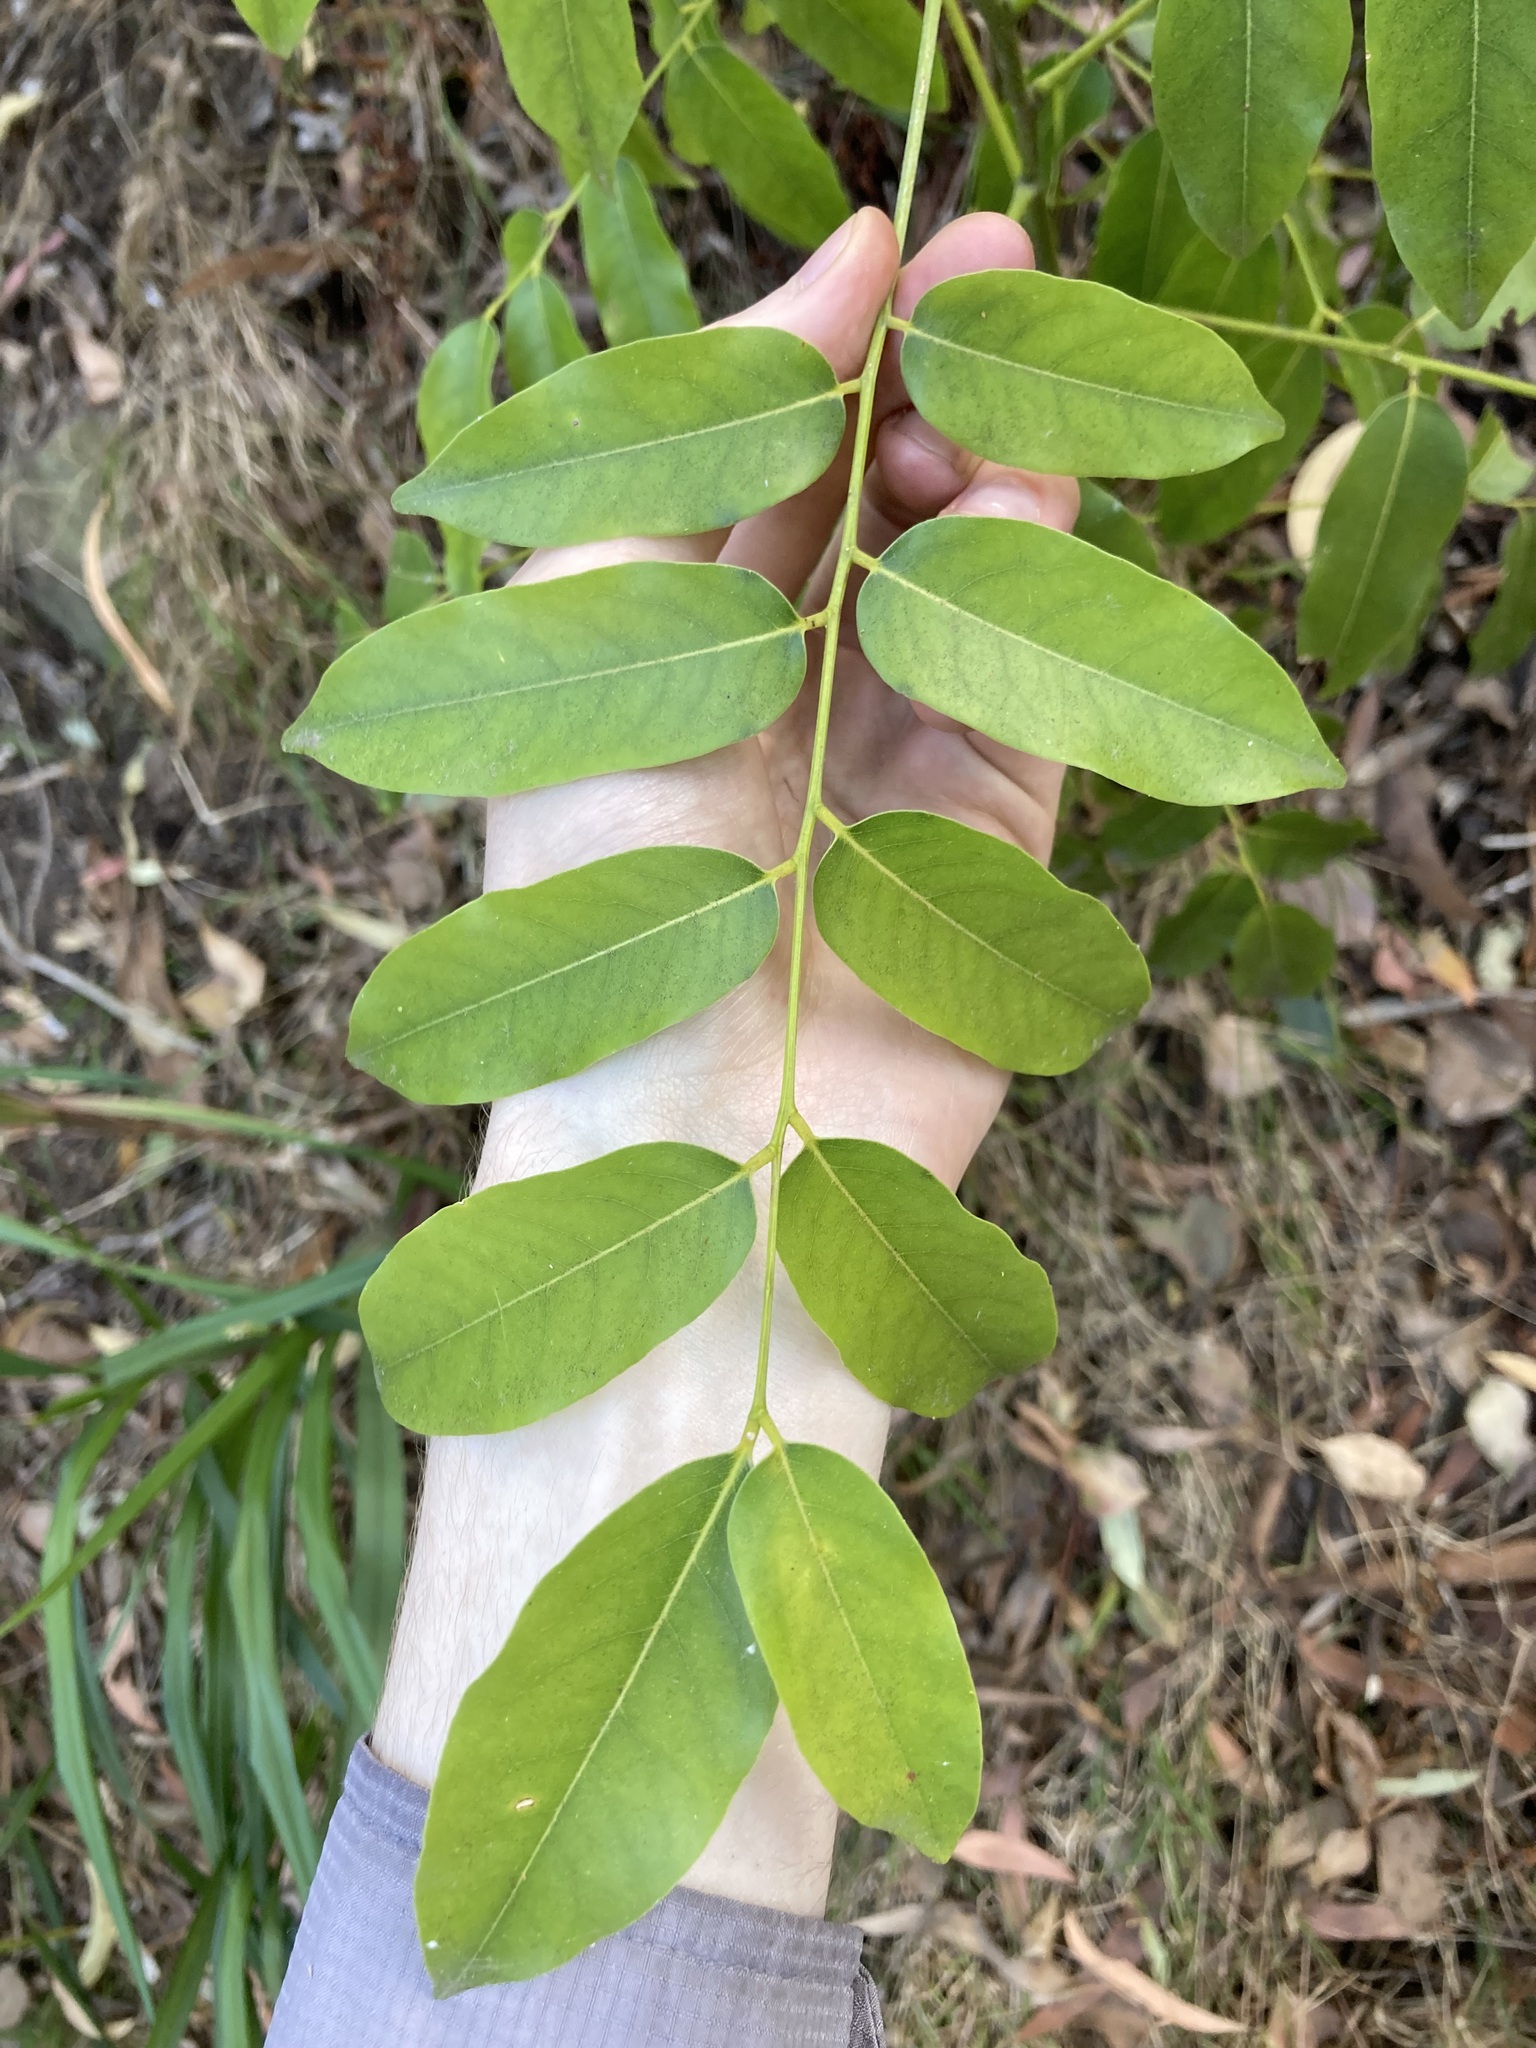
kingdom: Plantae
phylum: Tracheophyta
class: Magnoliopsida
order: Fabales
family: Fabaceae
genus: Castanospermum
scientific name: Castanospermum australe
